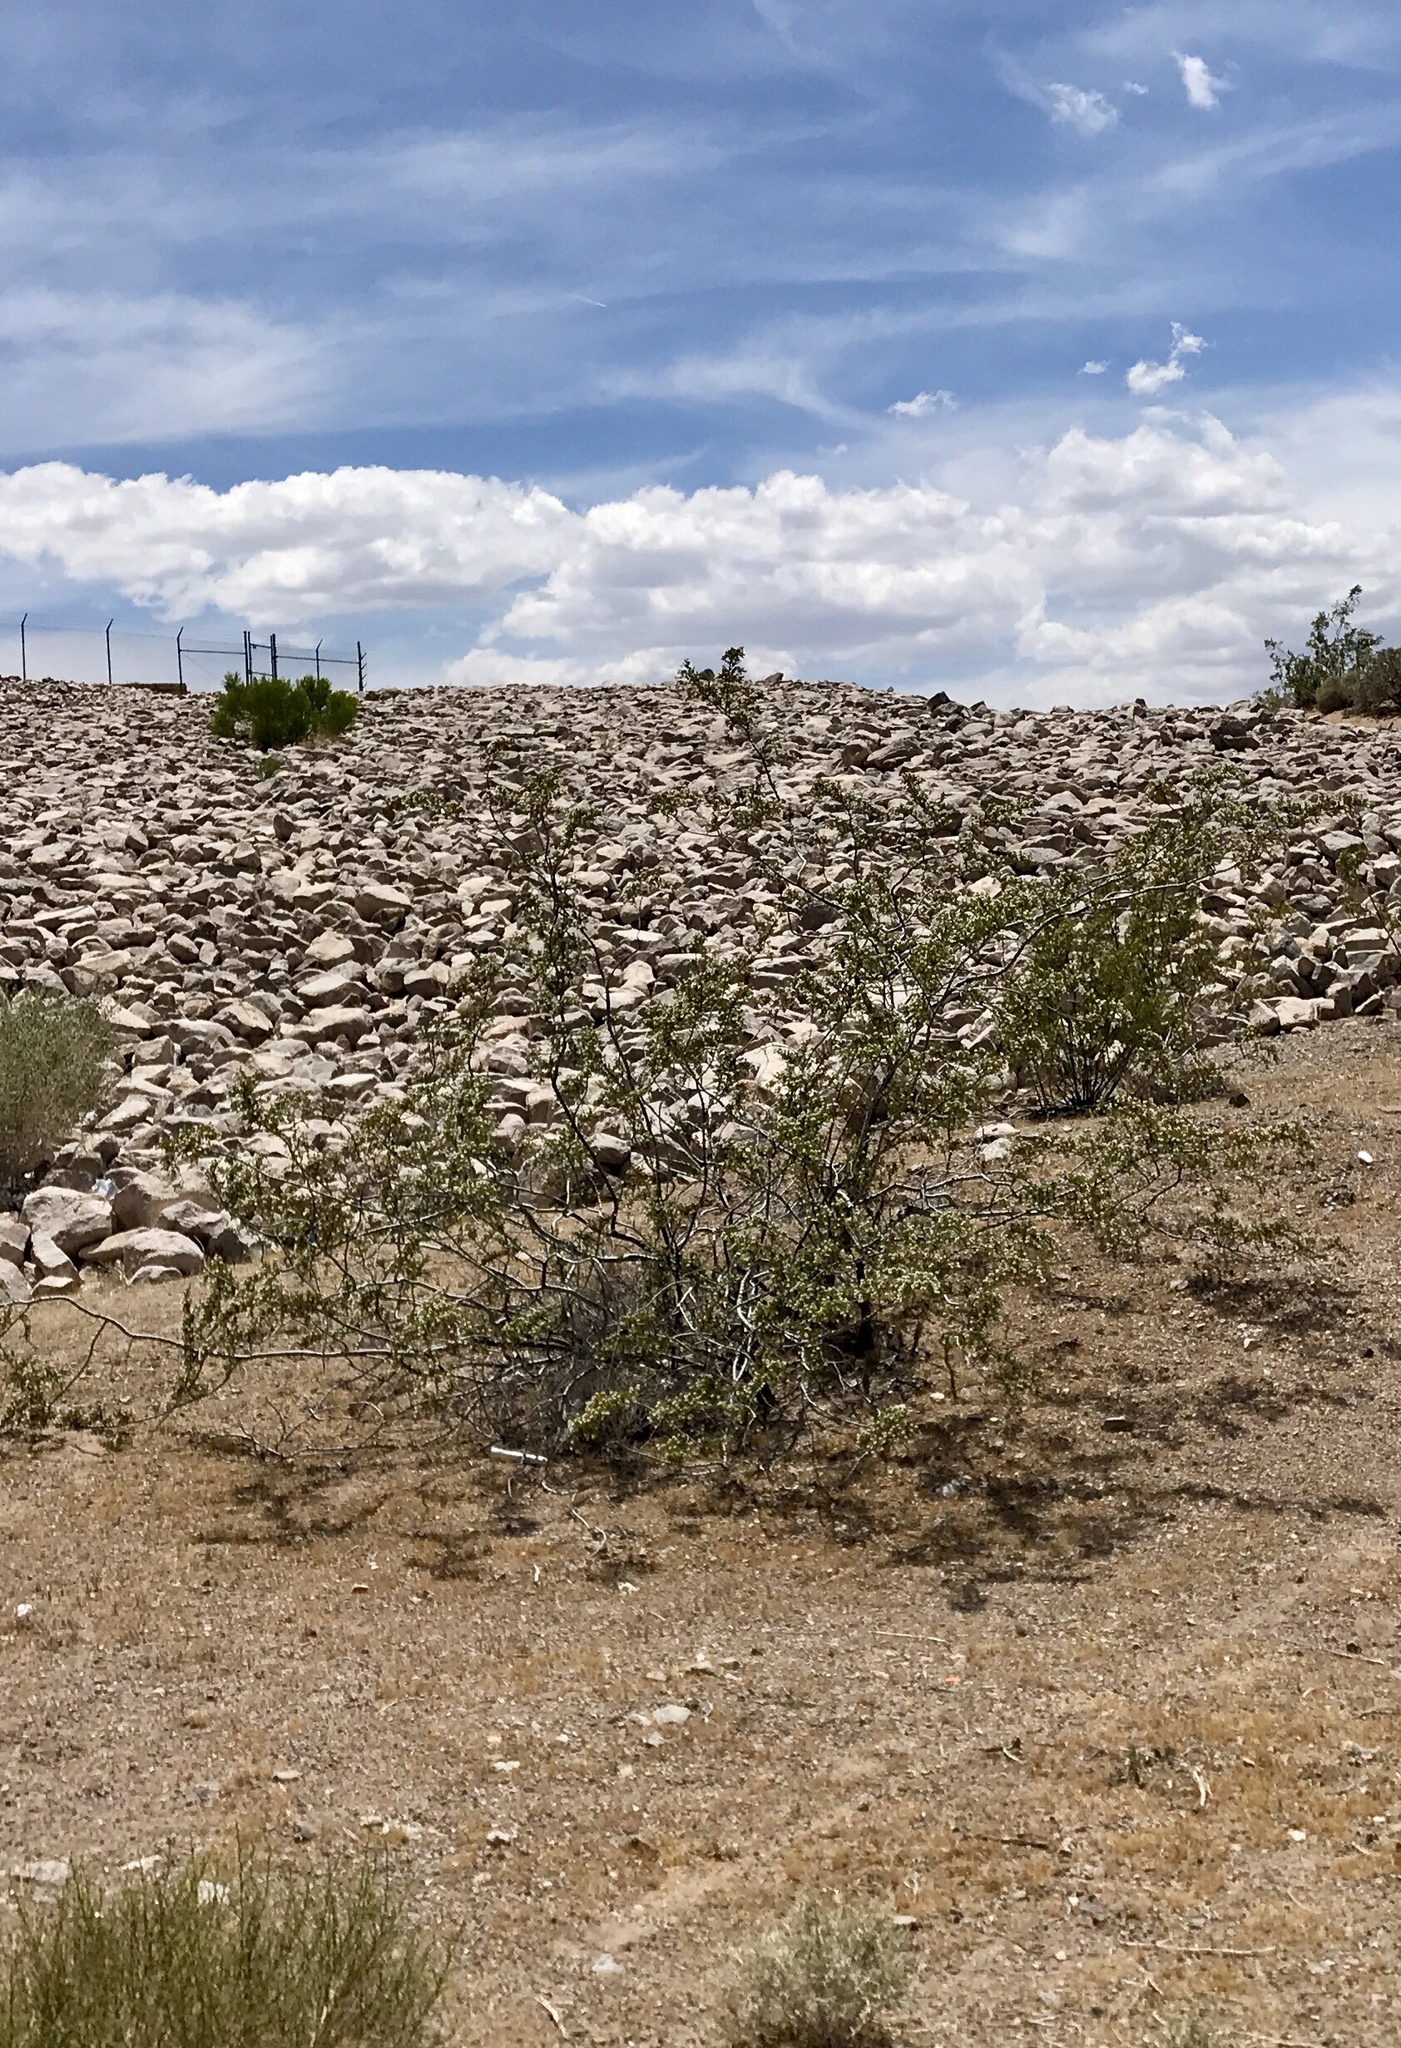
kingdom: Plantae
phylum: Tracheophyta
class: Magnoliopsida
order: Zygophyllales
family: Zygophyllaceae
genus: Larrea
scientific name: Larrea tridentata
